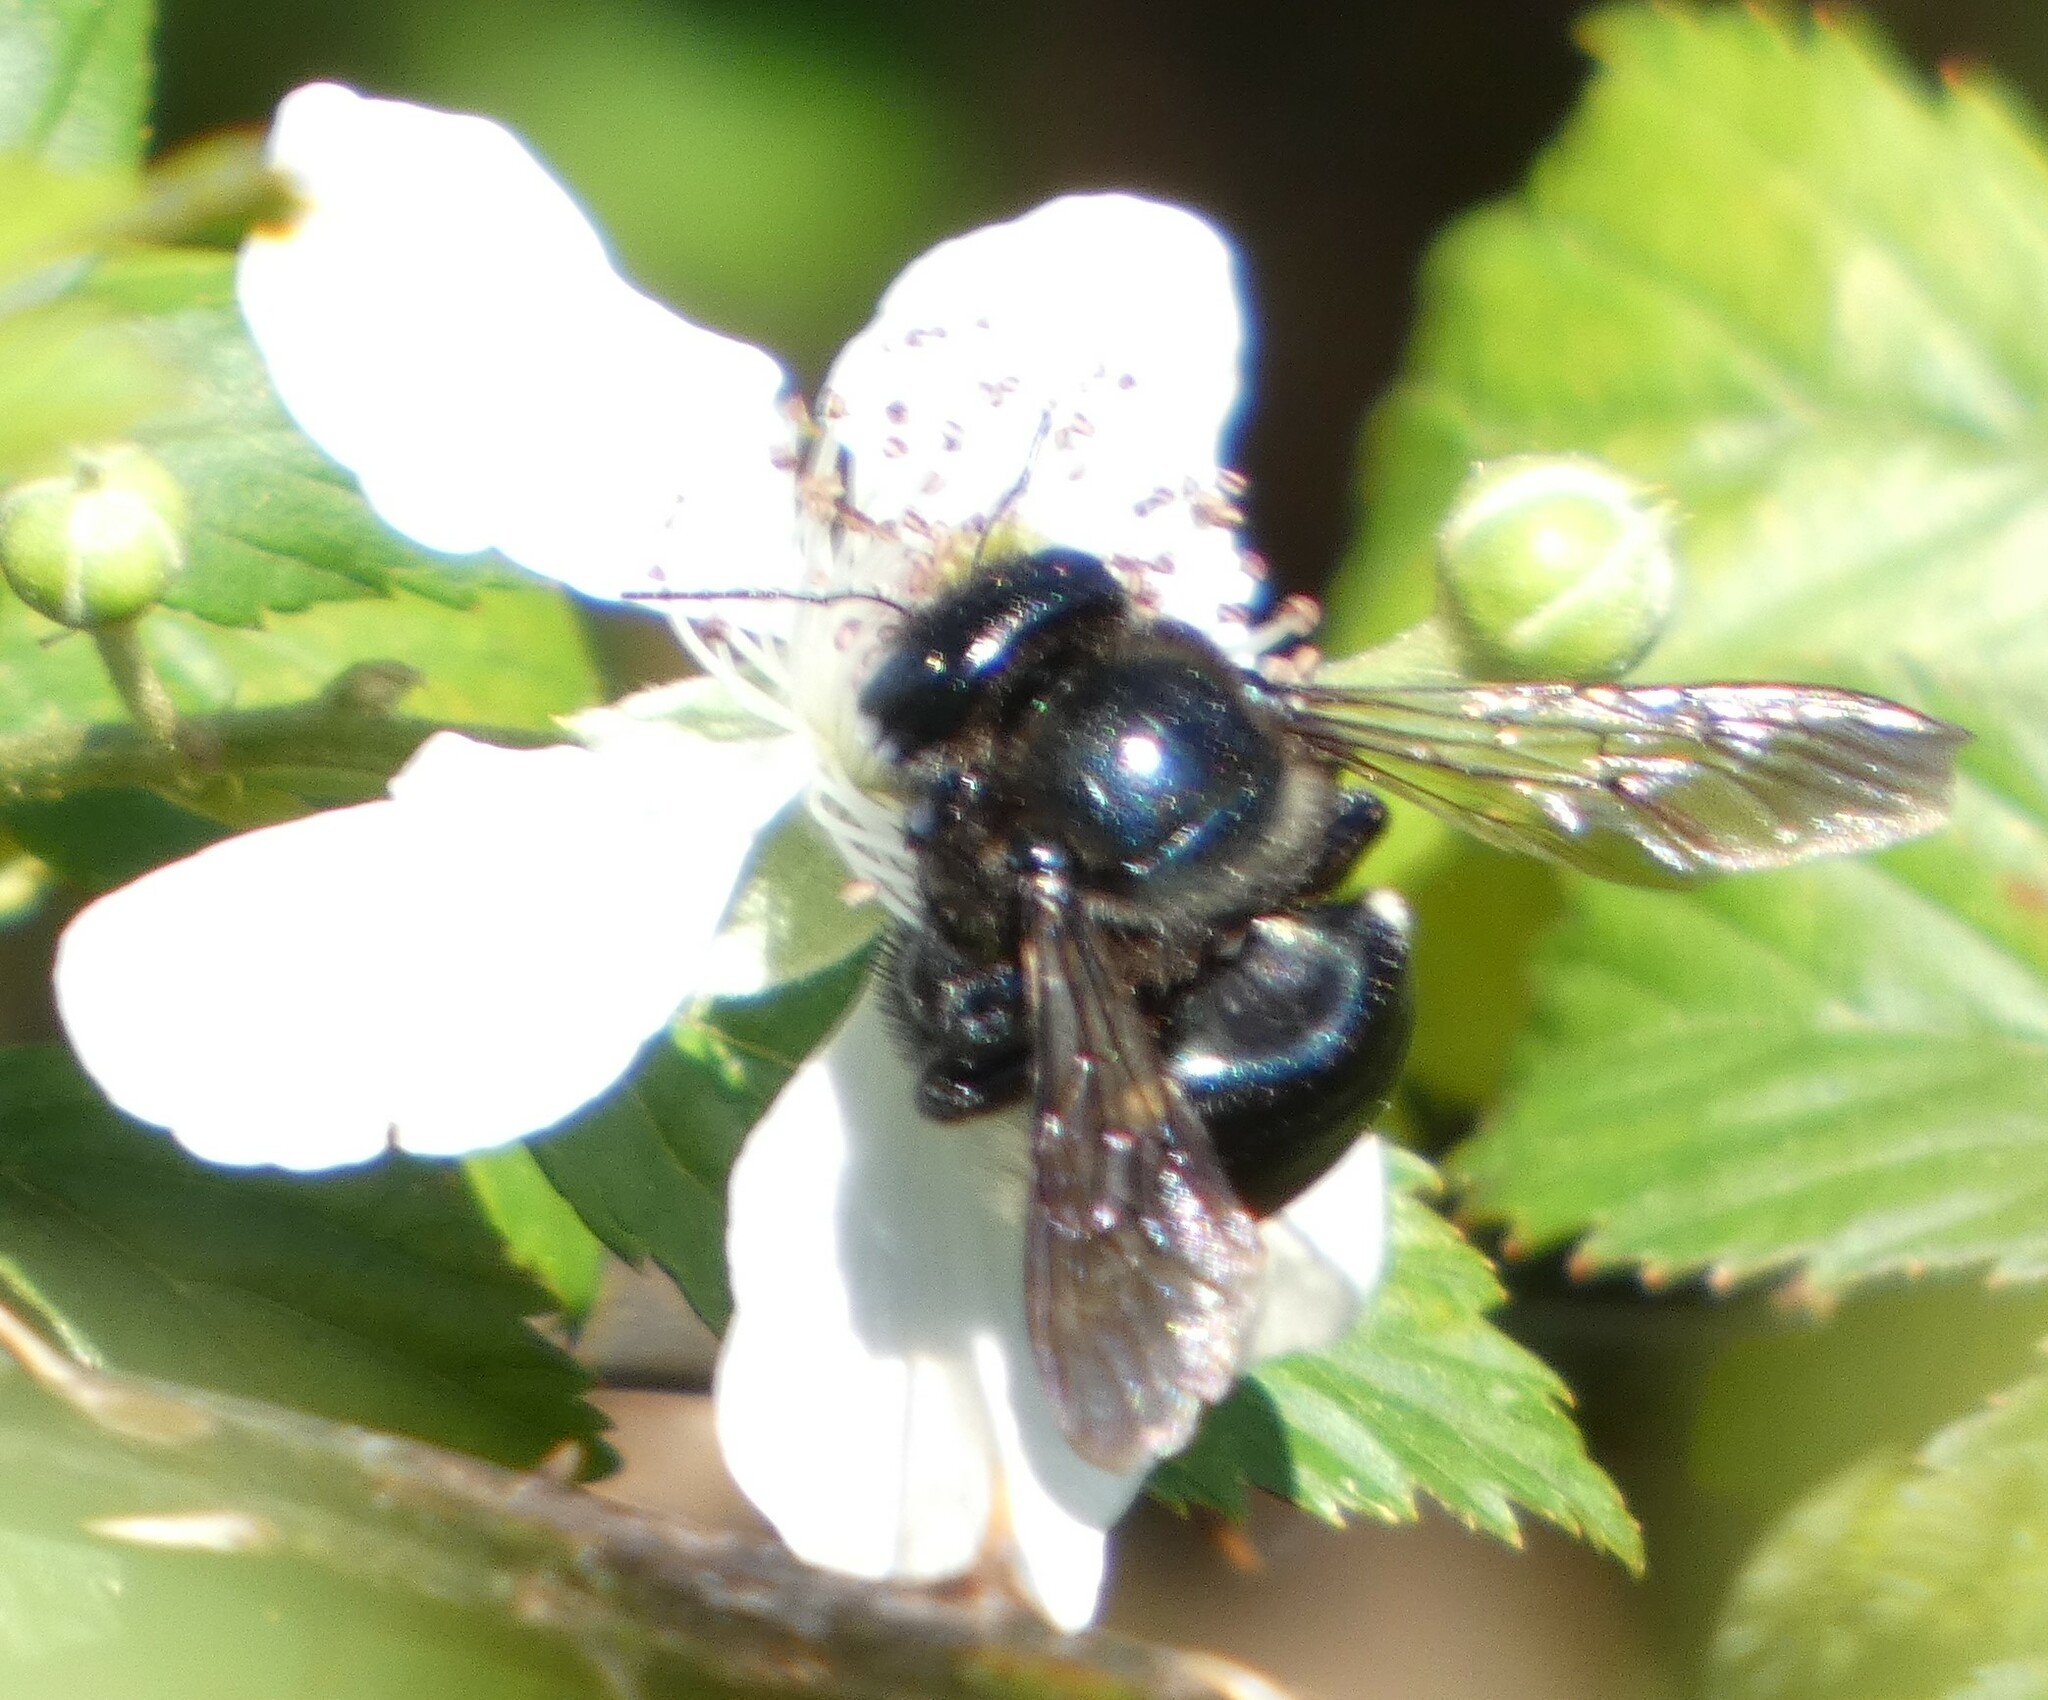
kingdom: Animalia
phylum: Arthropoda
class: Insecta
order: Hymenoptera
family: Apidae
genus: Xylocopa
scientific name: Xylocopa micans
